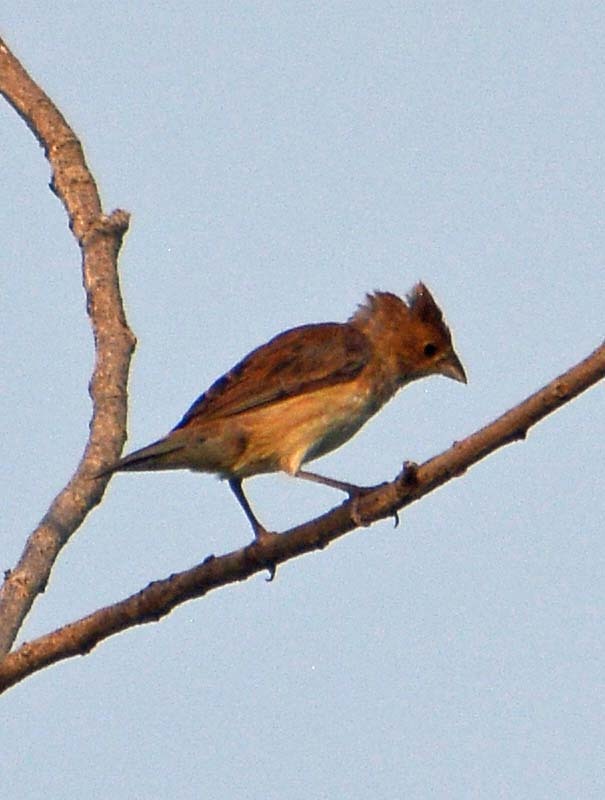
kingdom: Animalia
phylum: Chordata
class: Aves
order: Passeriformes
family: Thraupidae
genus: Volatinia
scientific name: Volatinia jacarina
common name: Blue-black grassquit
